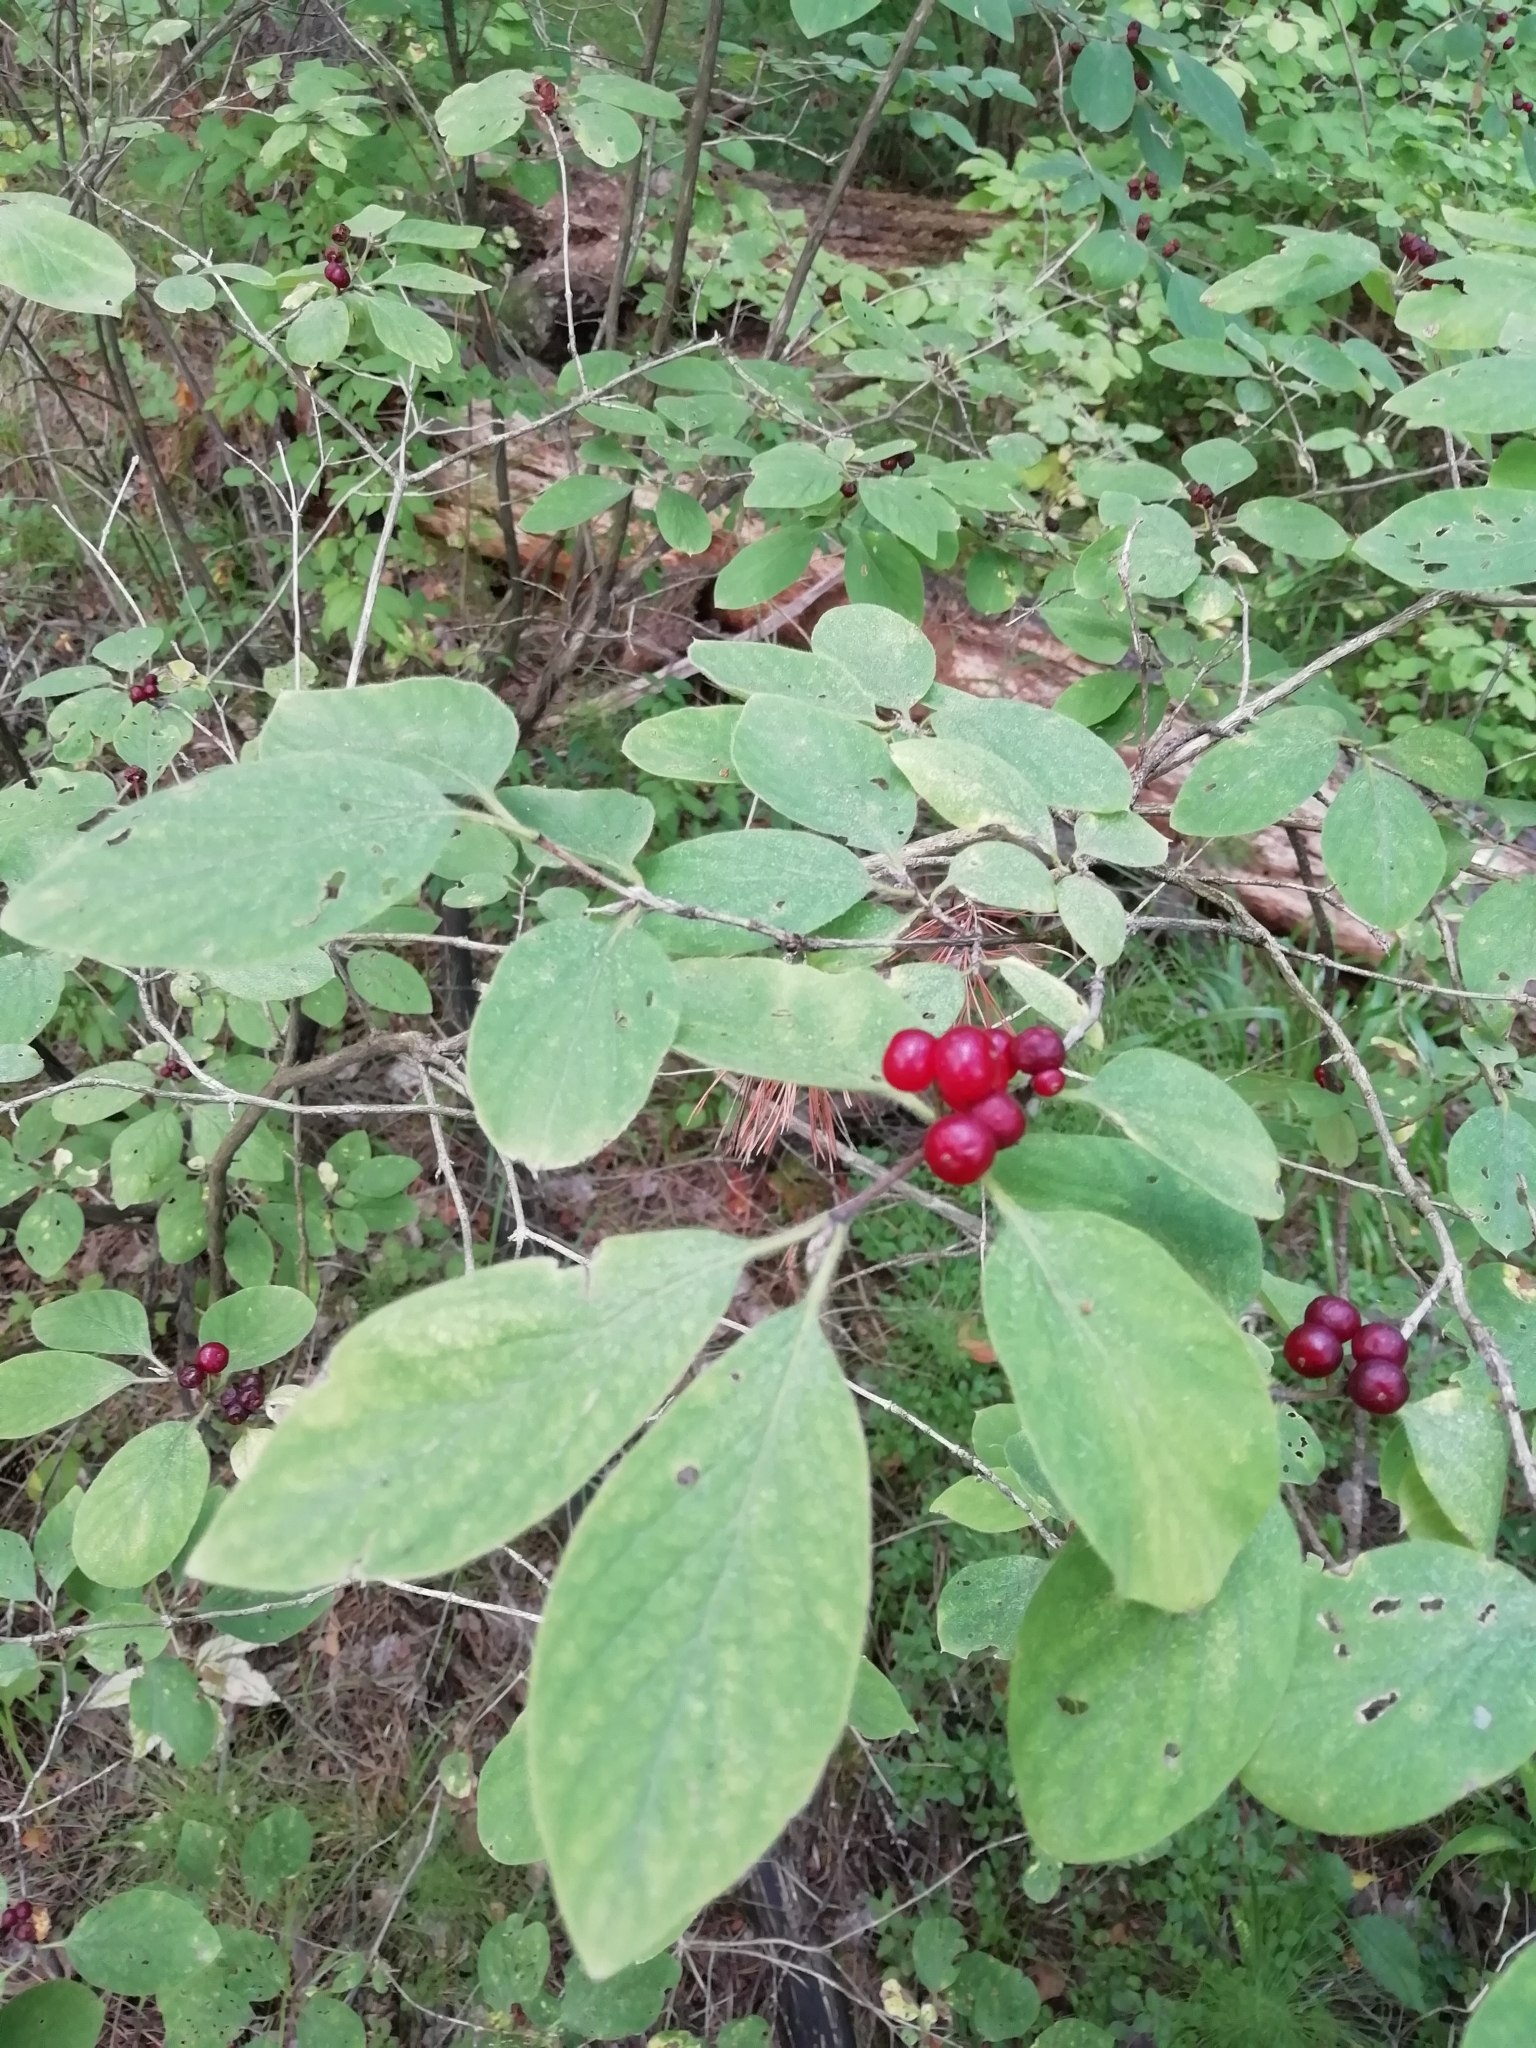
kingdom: Plantae
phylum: Tracheophyta
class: Magnoliopsida
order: Dipsacales
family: Caprifoliaceae
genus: Lonicera
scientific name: Lonicera xylosteum
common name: Fly honeysuckle
